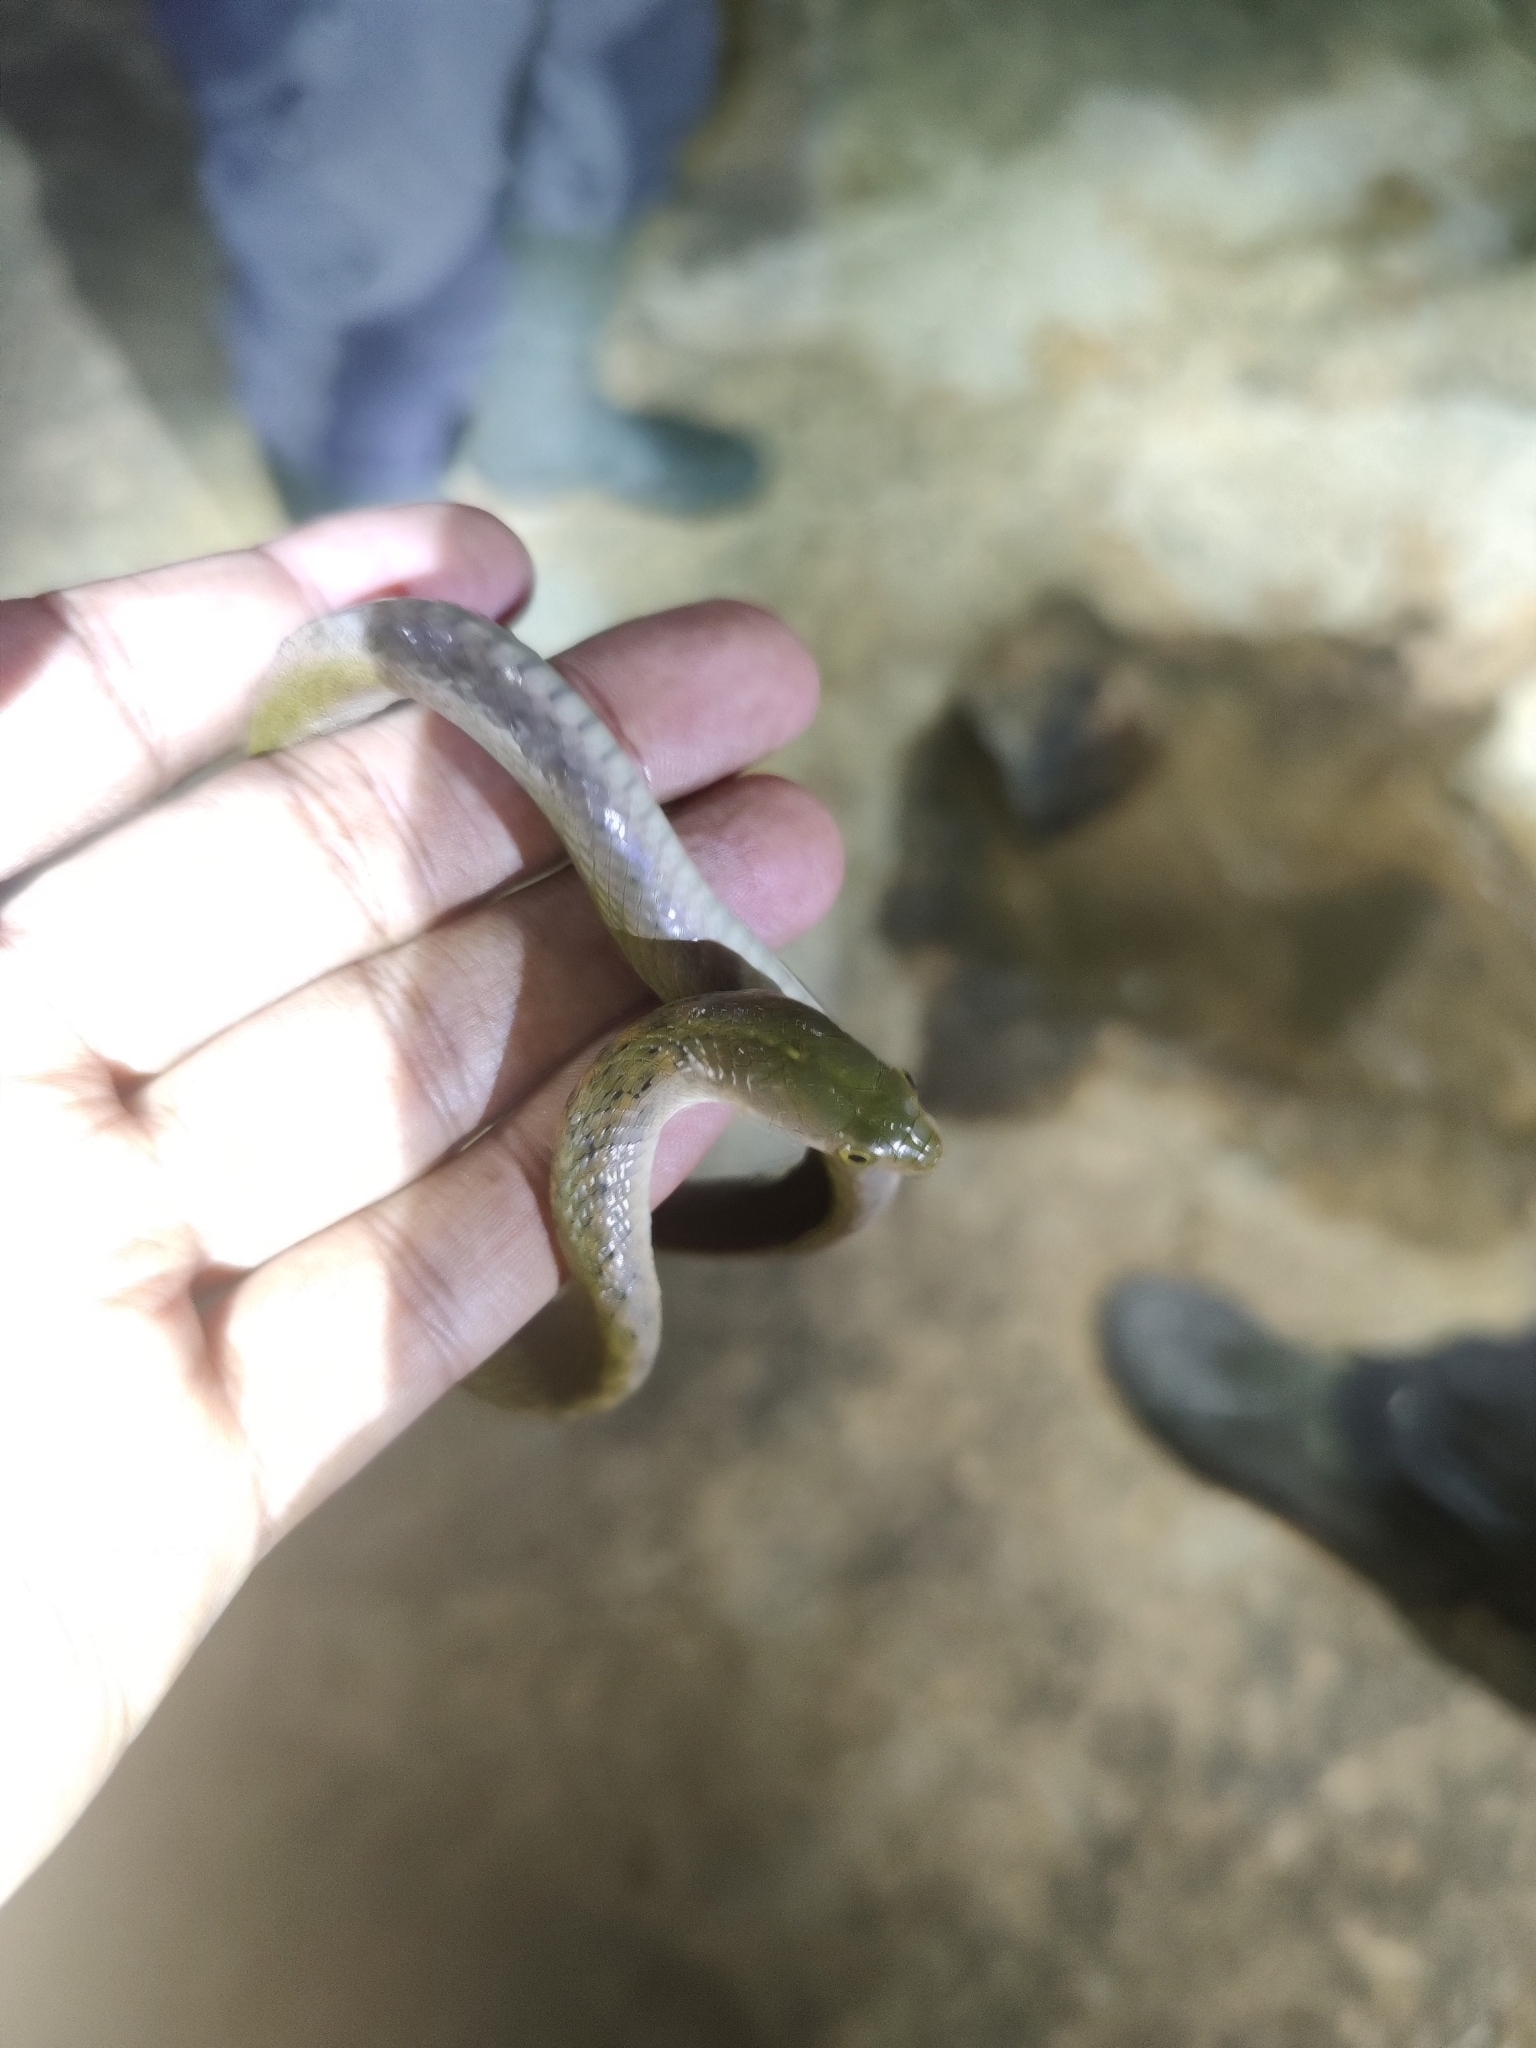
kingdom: Animalia
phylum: Chordata
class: Squamata
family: Colubridae
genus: Fowlea
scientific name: Fowlea piscator
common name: Asiatic water snake
